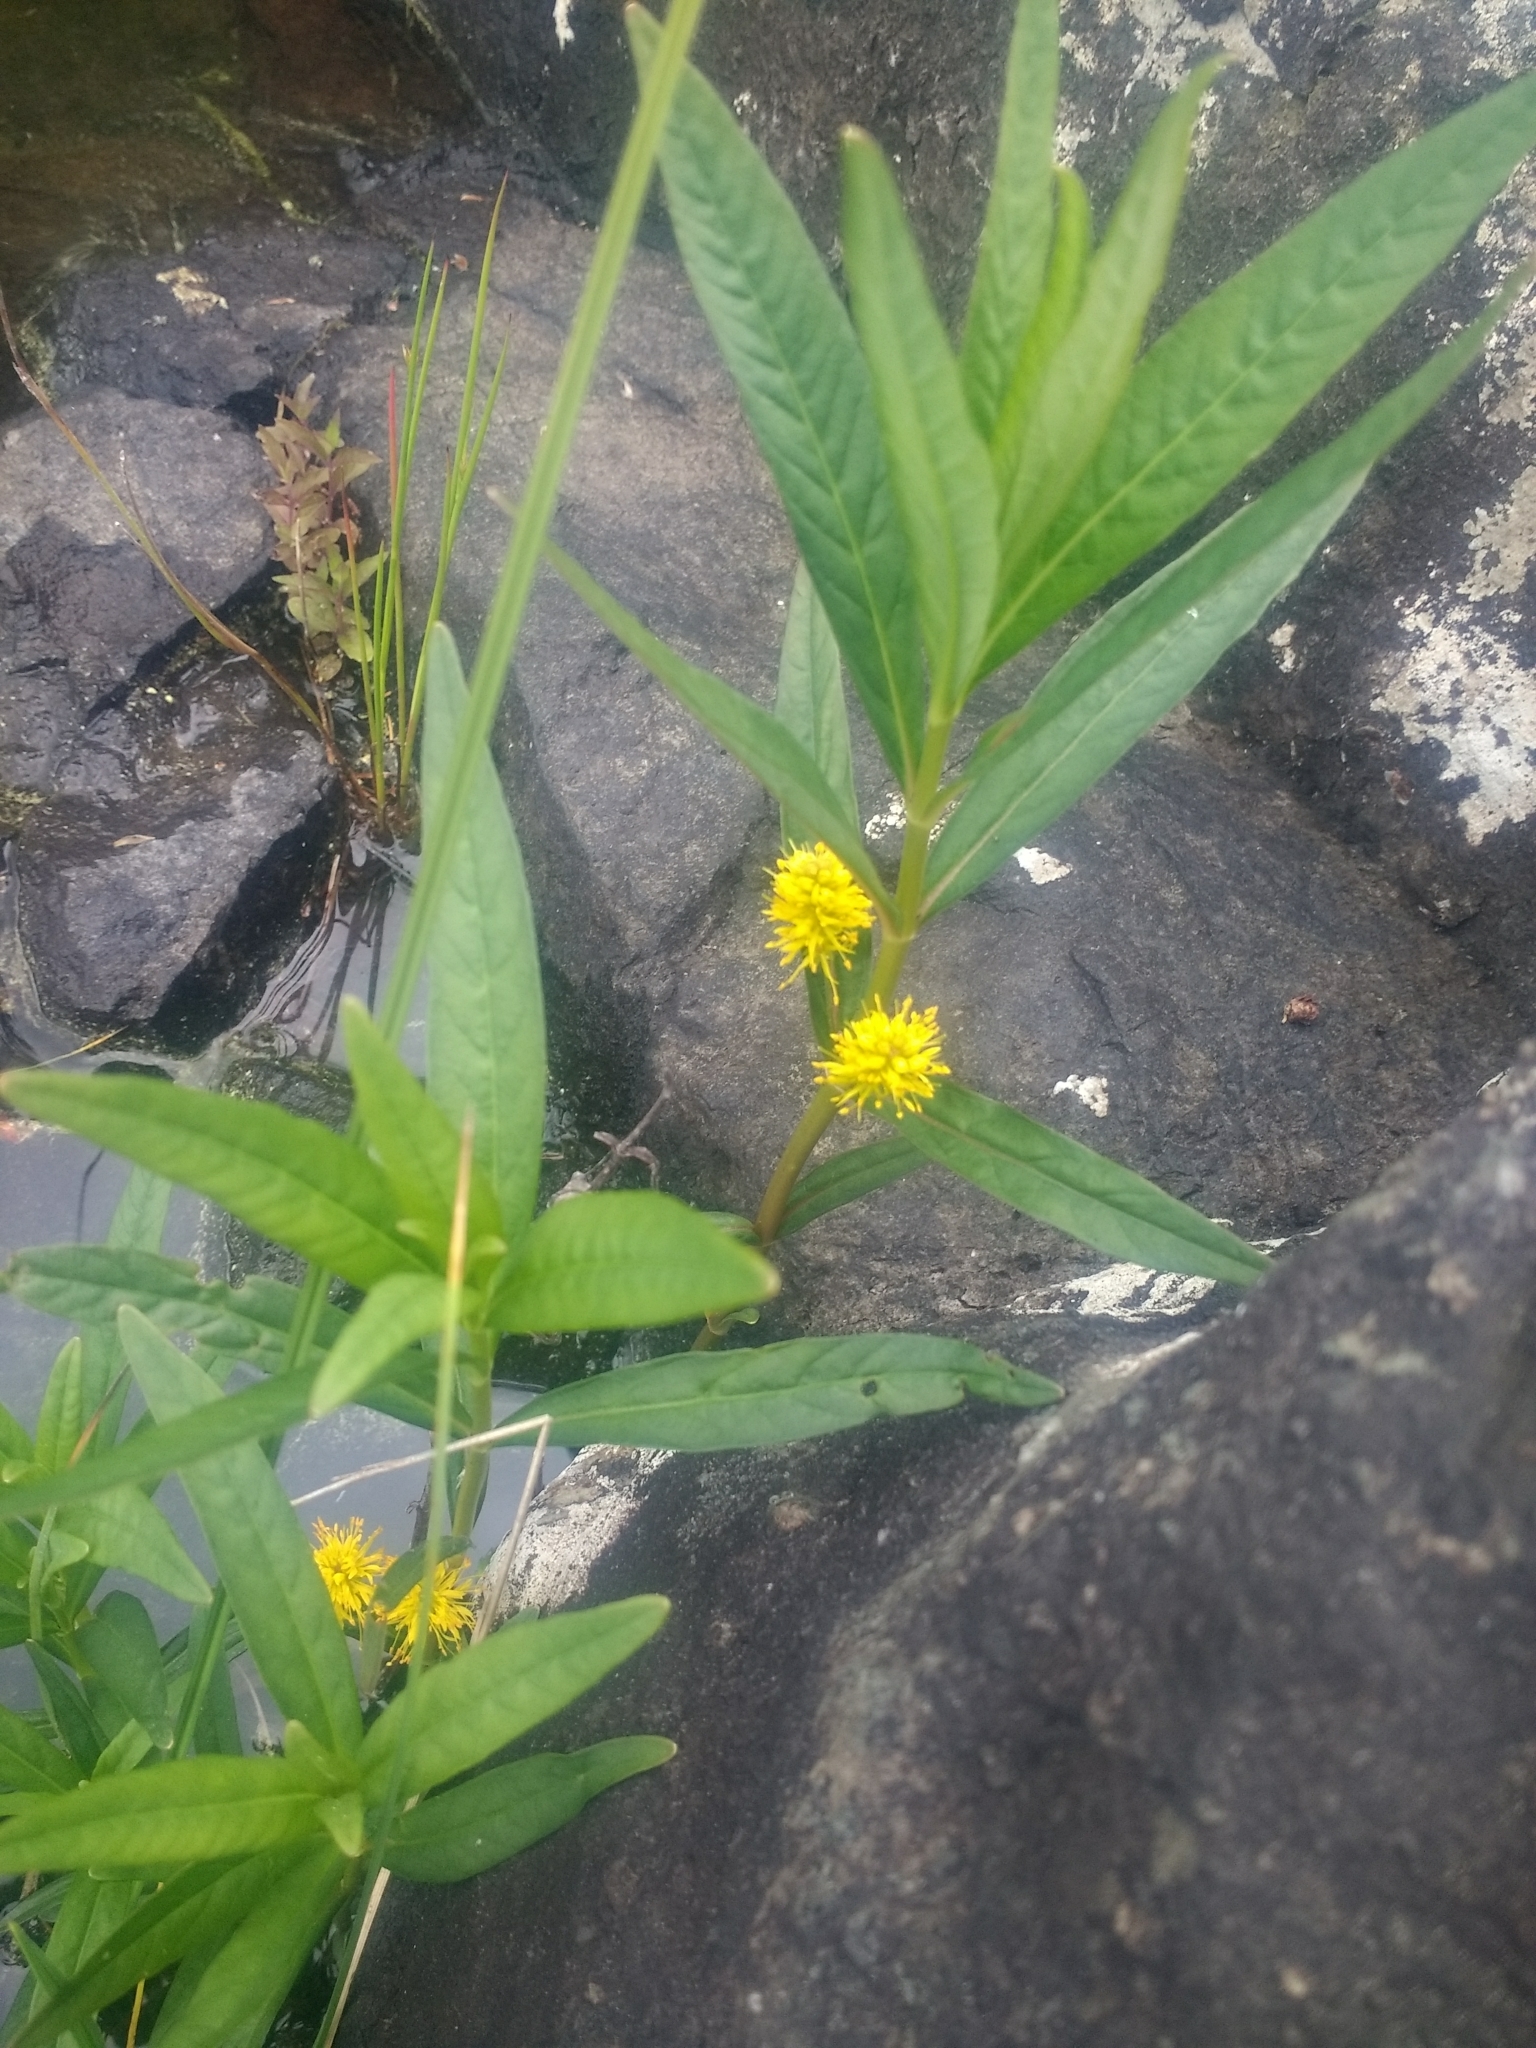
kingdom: Plantae
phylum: Tracheophyta
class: Magnoliopsida
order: Ericales
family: Primulaceae
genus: Lysimachia
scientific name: Lysimachia thyrsiflora
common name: Tufted loosestrife
